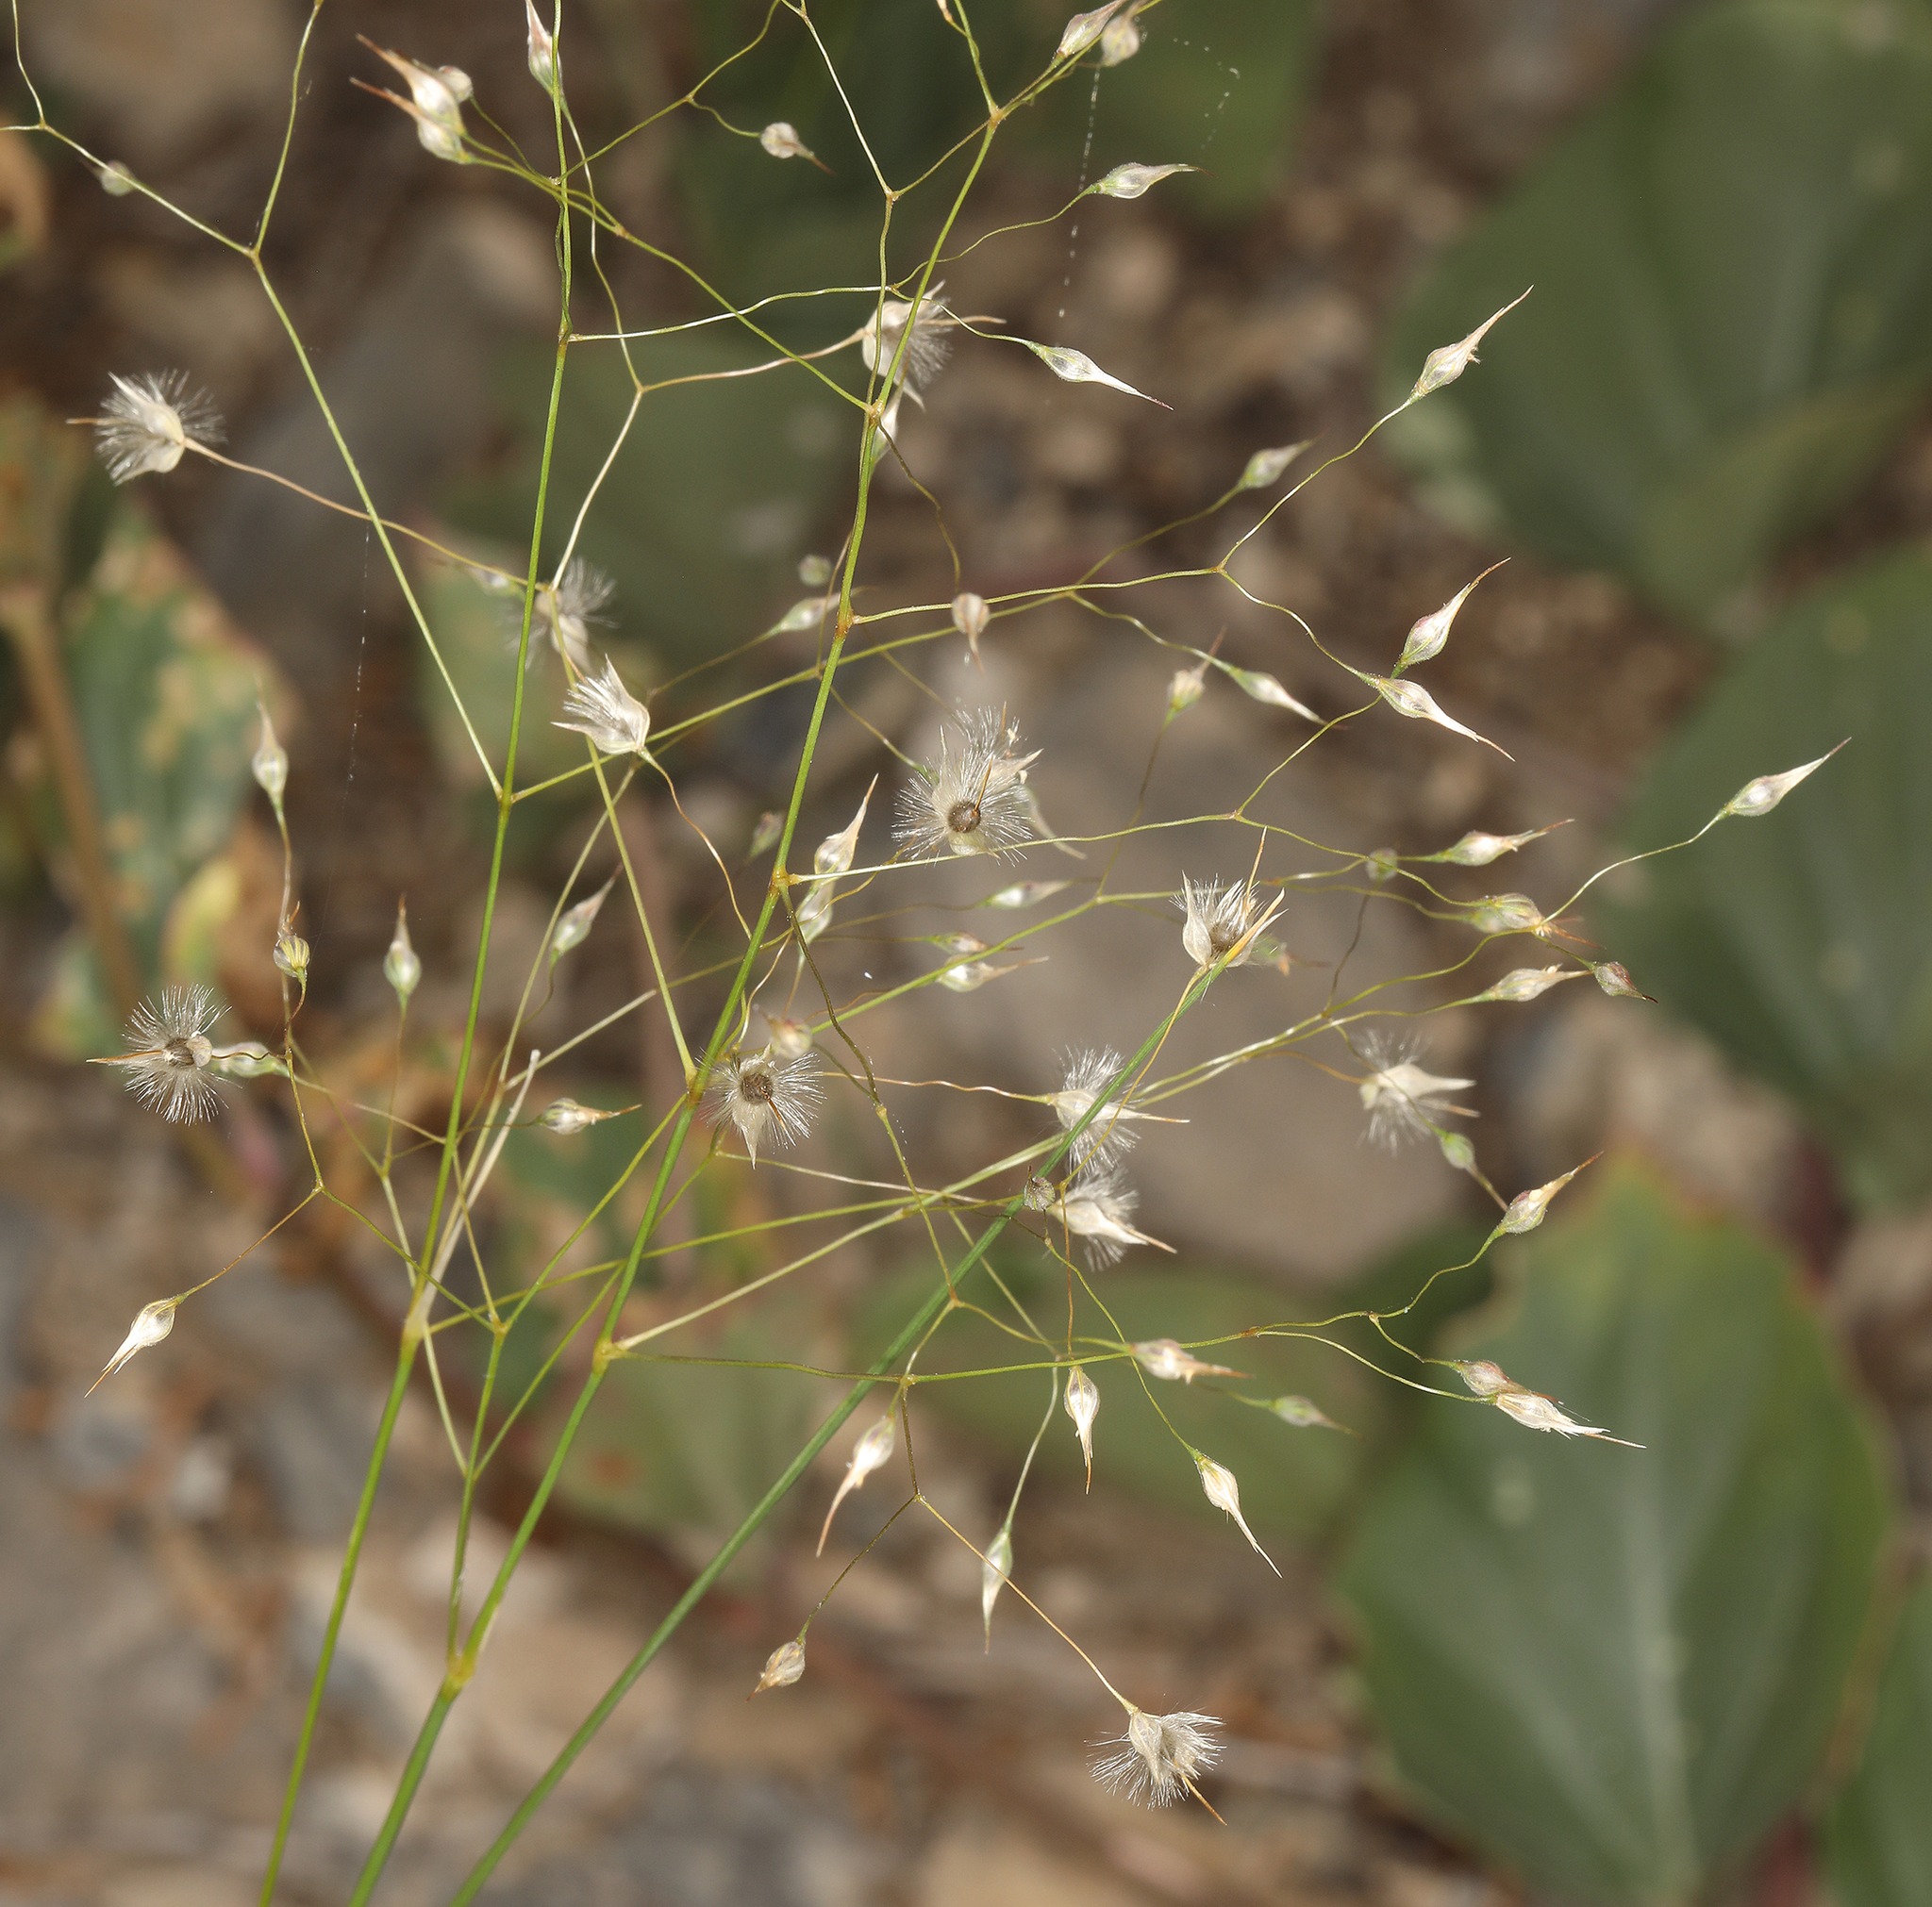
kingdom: Plantae
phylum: Tracheophyta
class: Liliopsida
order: Poales
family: Poaceae
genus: Eriocoma
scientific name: Eriocoma hymenoides
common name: Indian mountain ricegrass
